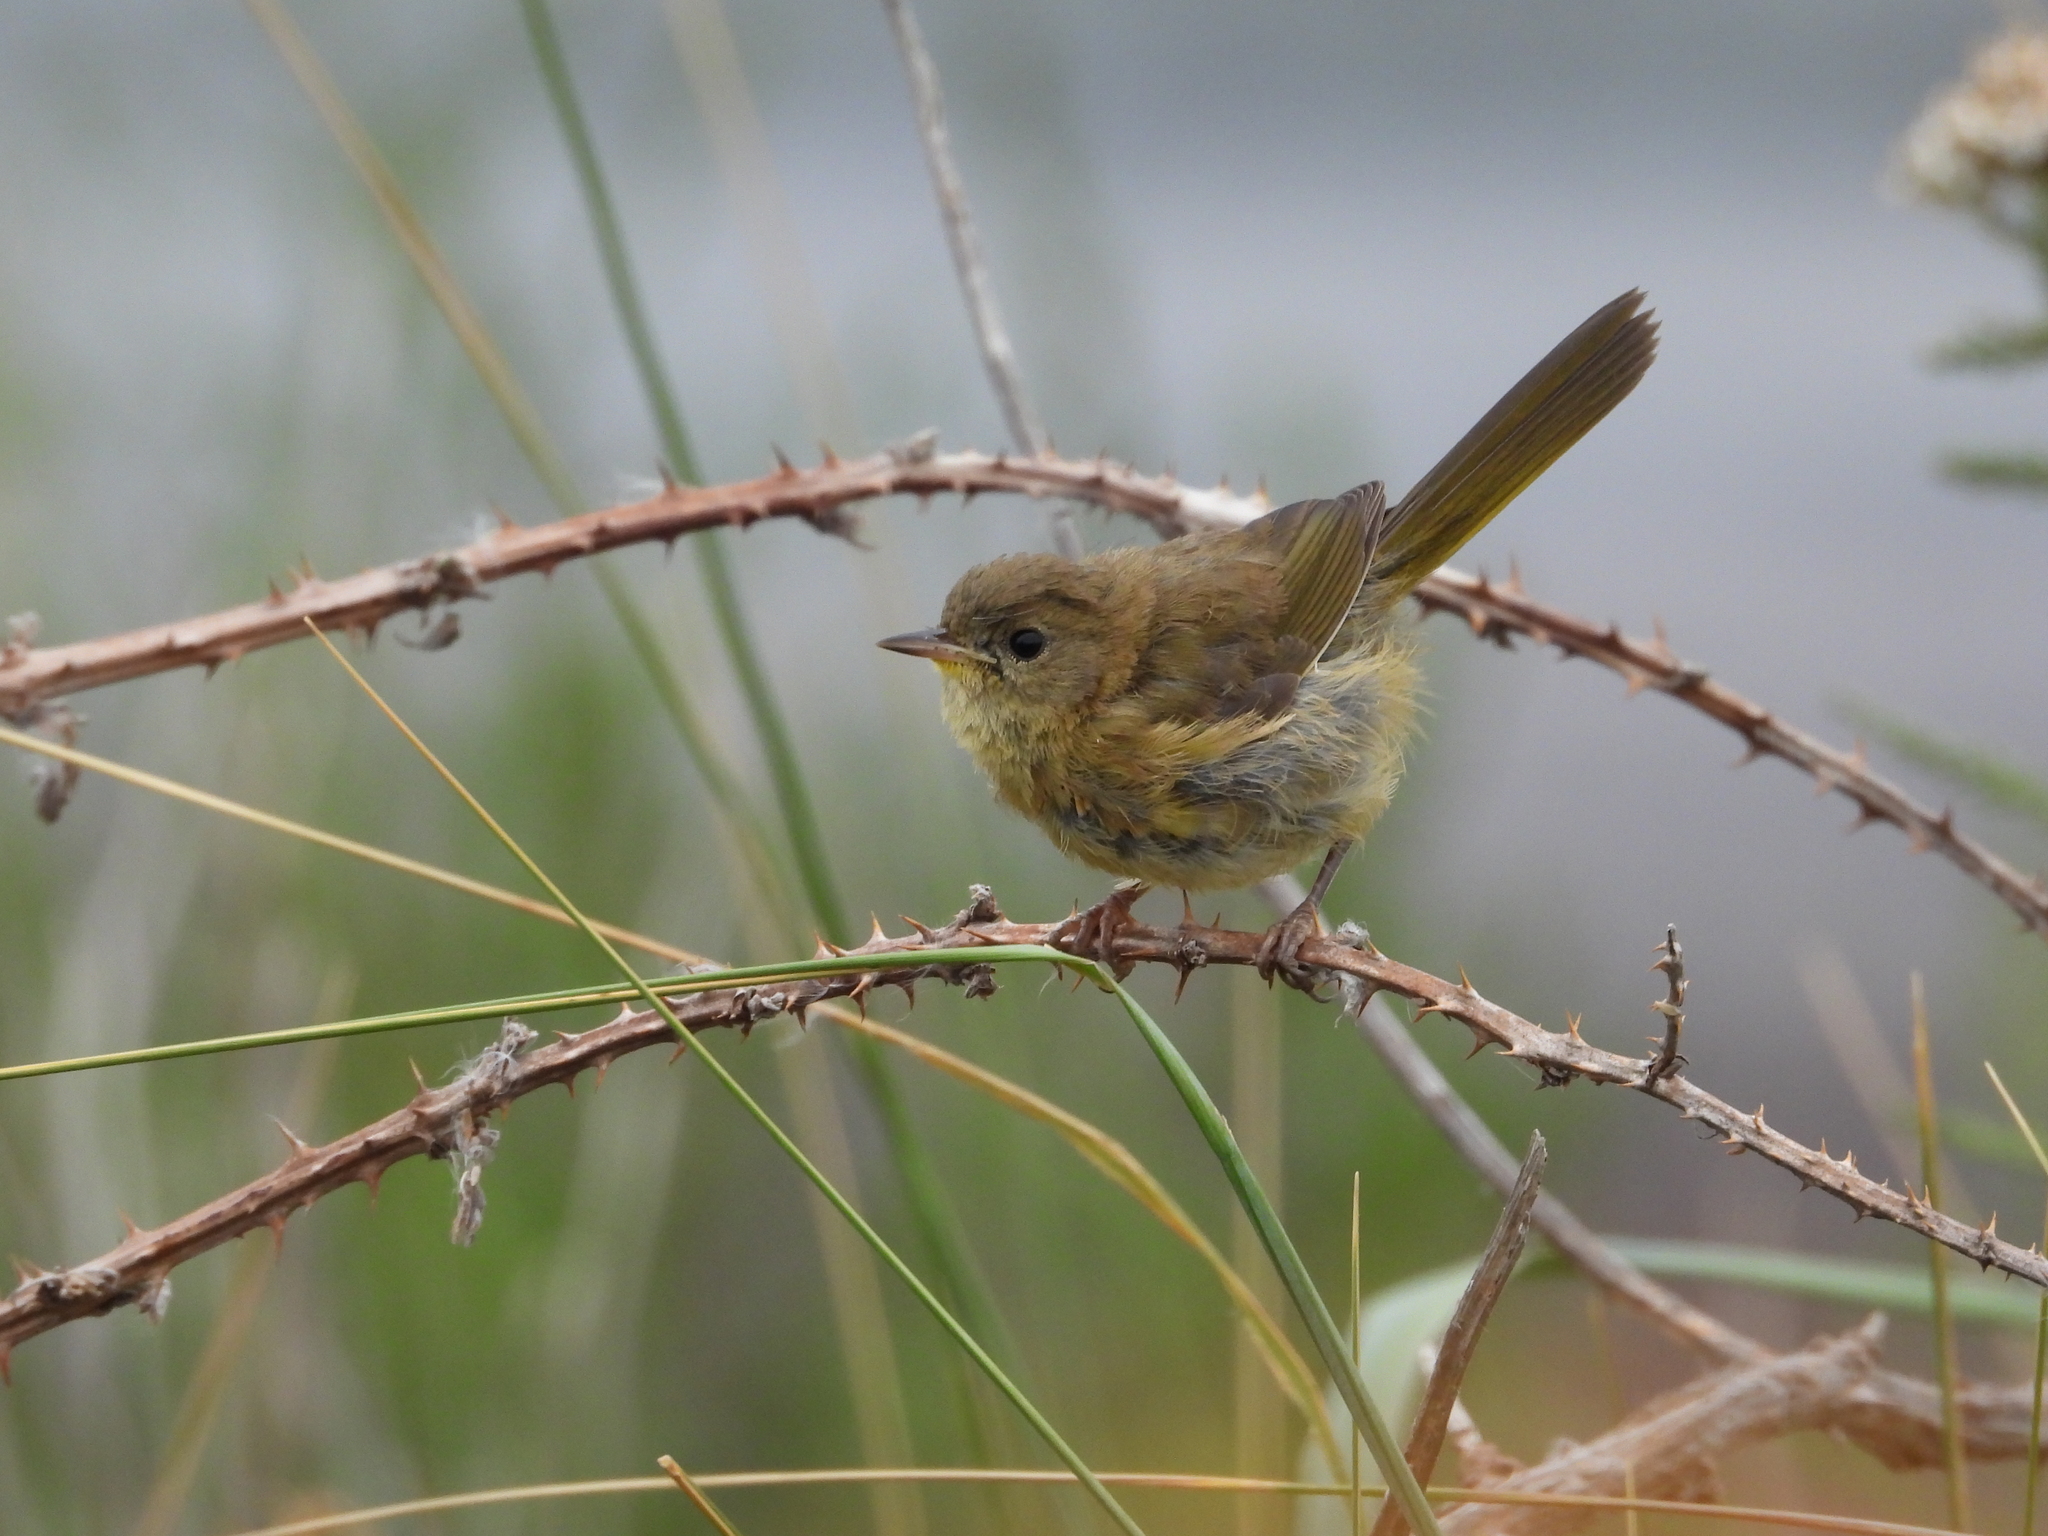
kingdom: Animalia
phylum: Chordata
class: Aves
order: Passeriformes
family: Parulidae
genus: Geothlypis
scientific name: Geothlypis trichas
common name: Common yellowthroat
